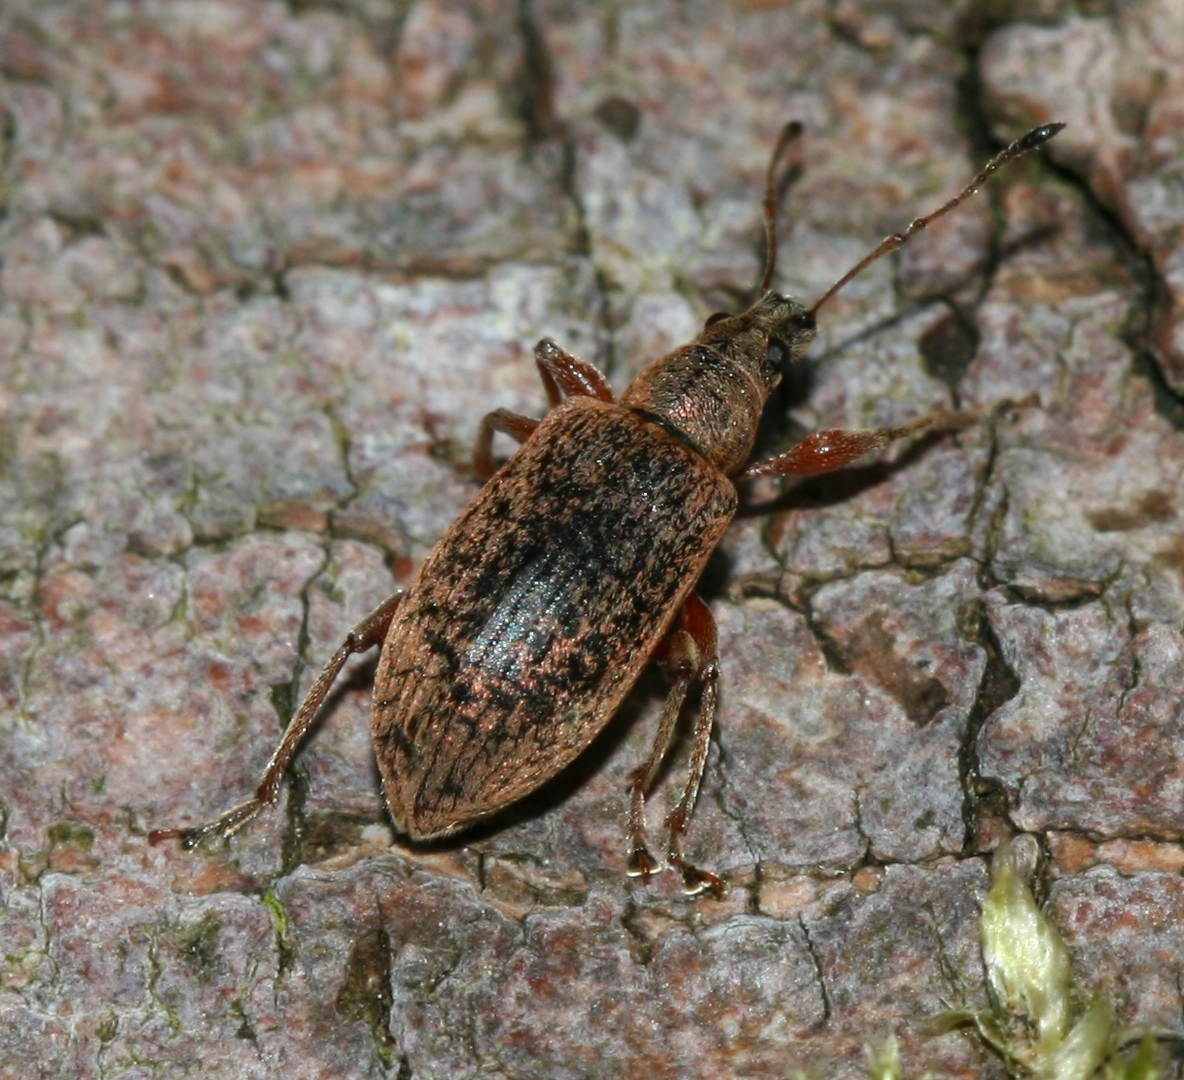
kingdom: Animalia
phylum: Arthropoda
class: Insecta
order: Coleoptera
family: Curculionidae
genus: Phyllobius
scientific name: Phyllobius glaucus
